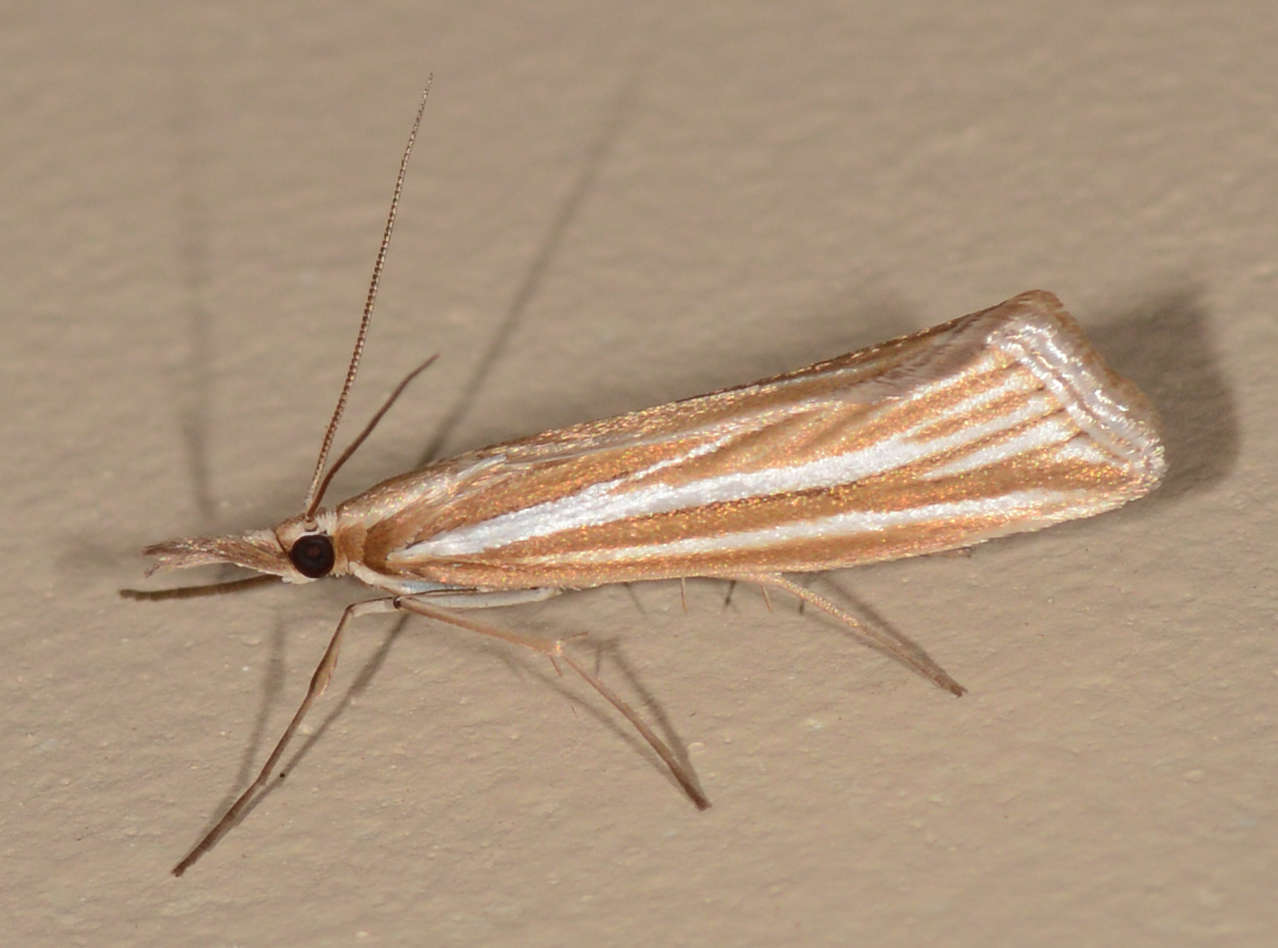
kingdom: Animalia
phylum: Arthropoda
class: Insecta
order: Lepidoptera
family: Crambidae
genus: Hednota
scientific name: Hednota grammellus
